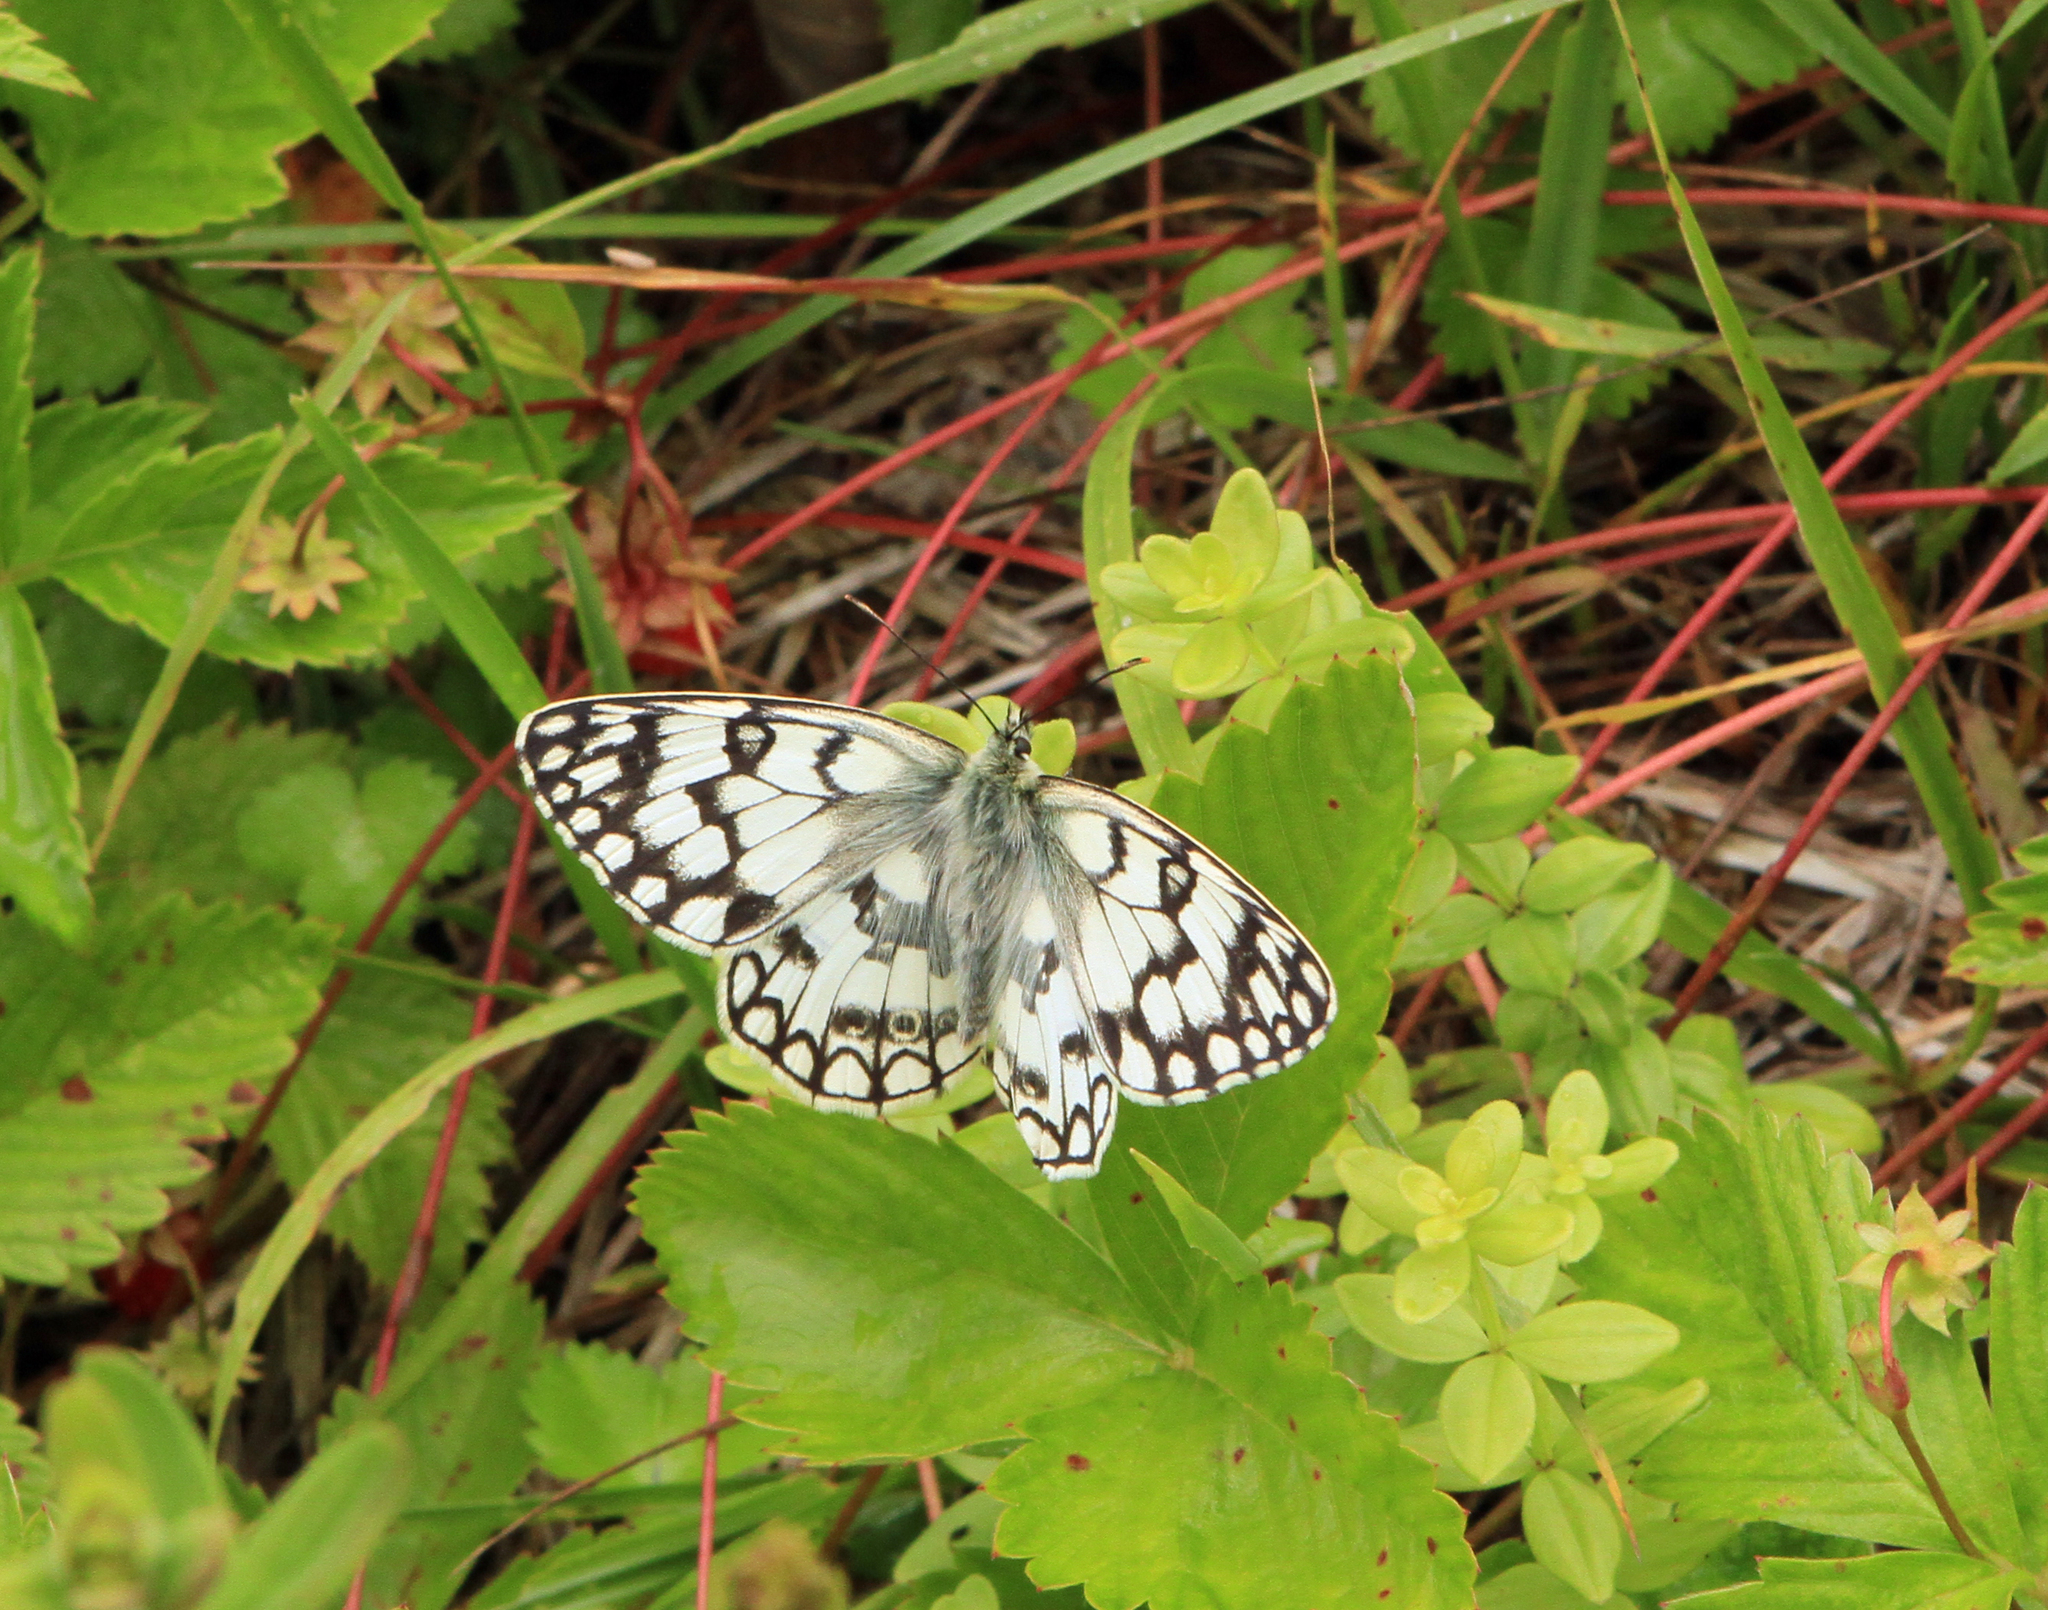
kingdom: Animalia
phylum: Arthropoda
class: Insecta
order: Lepidoptera
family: Nymphalidae
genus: Melanargia
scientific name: Melanargia japygia
